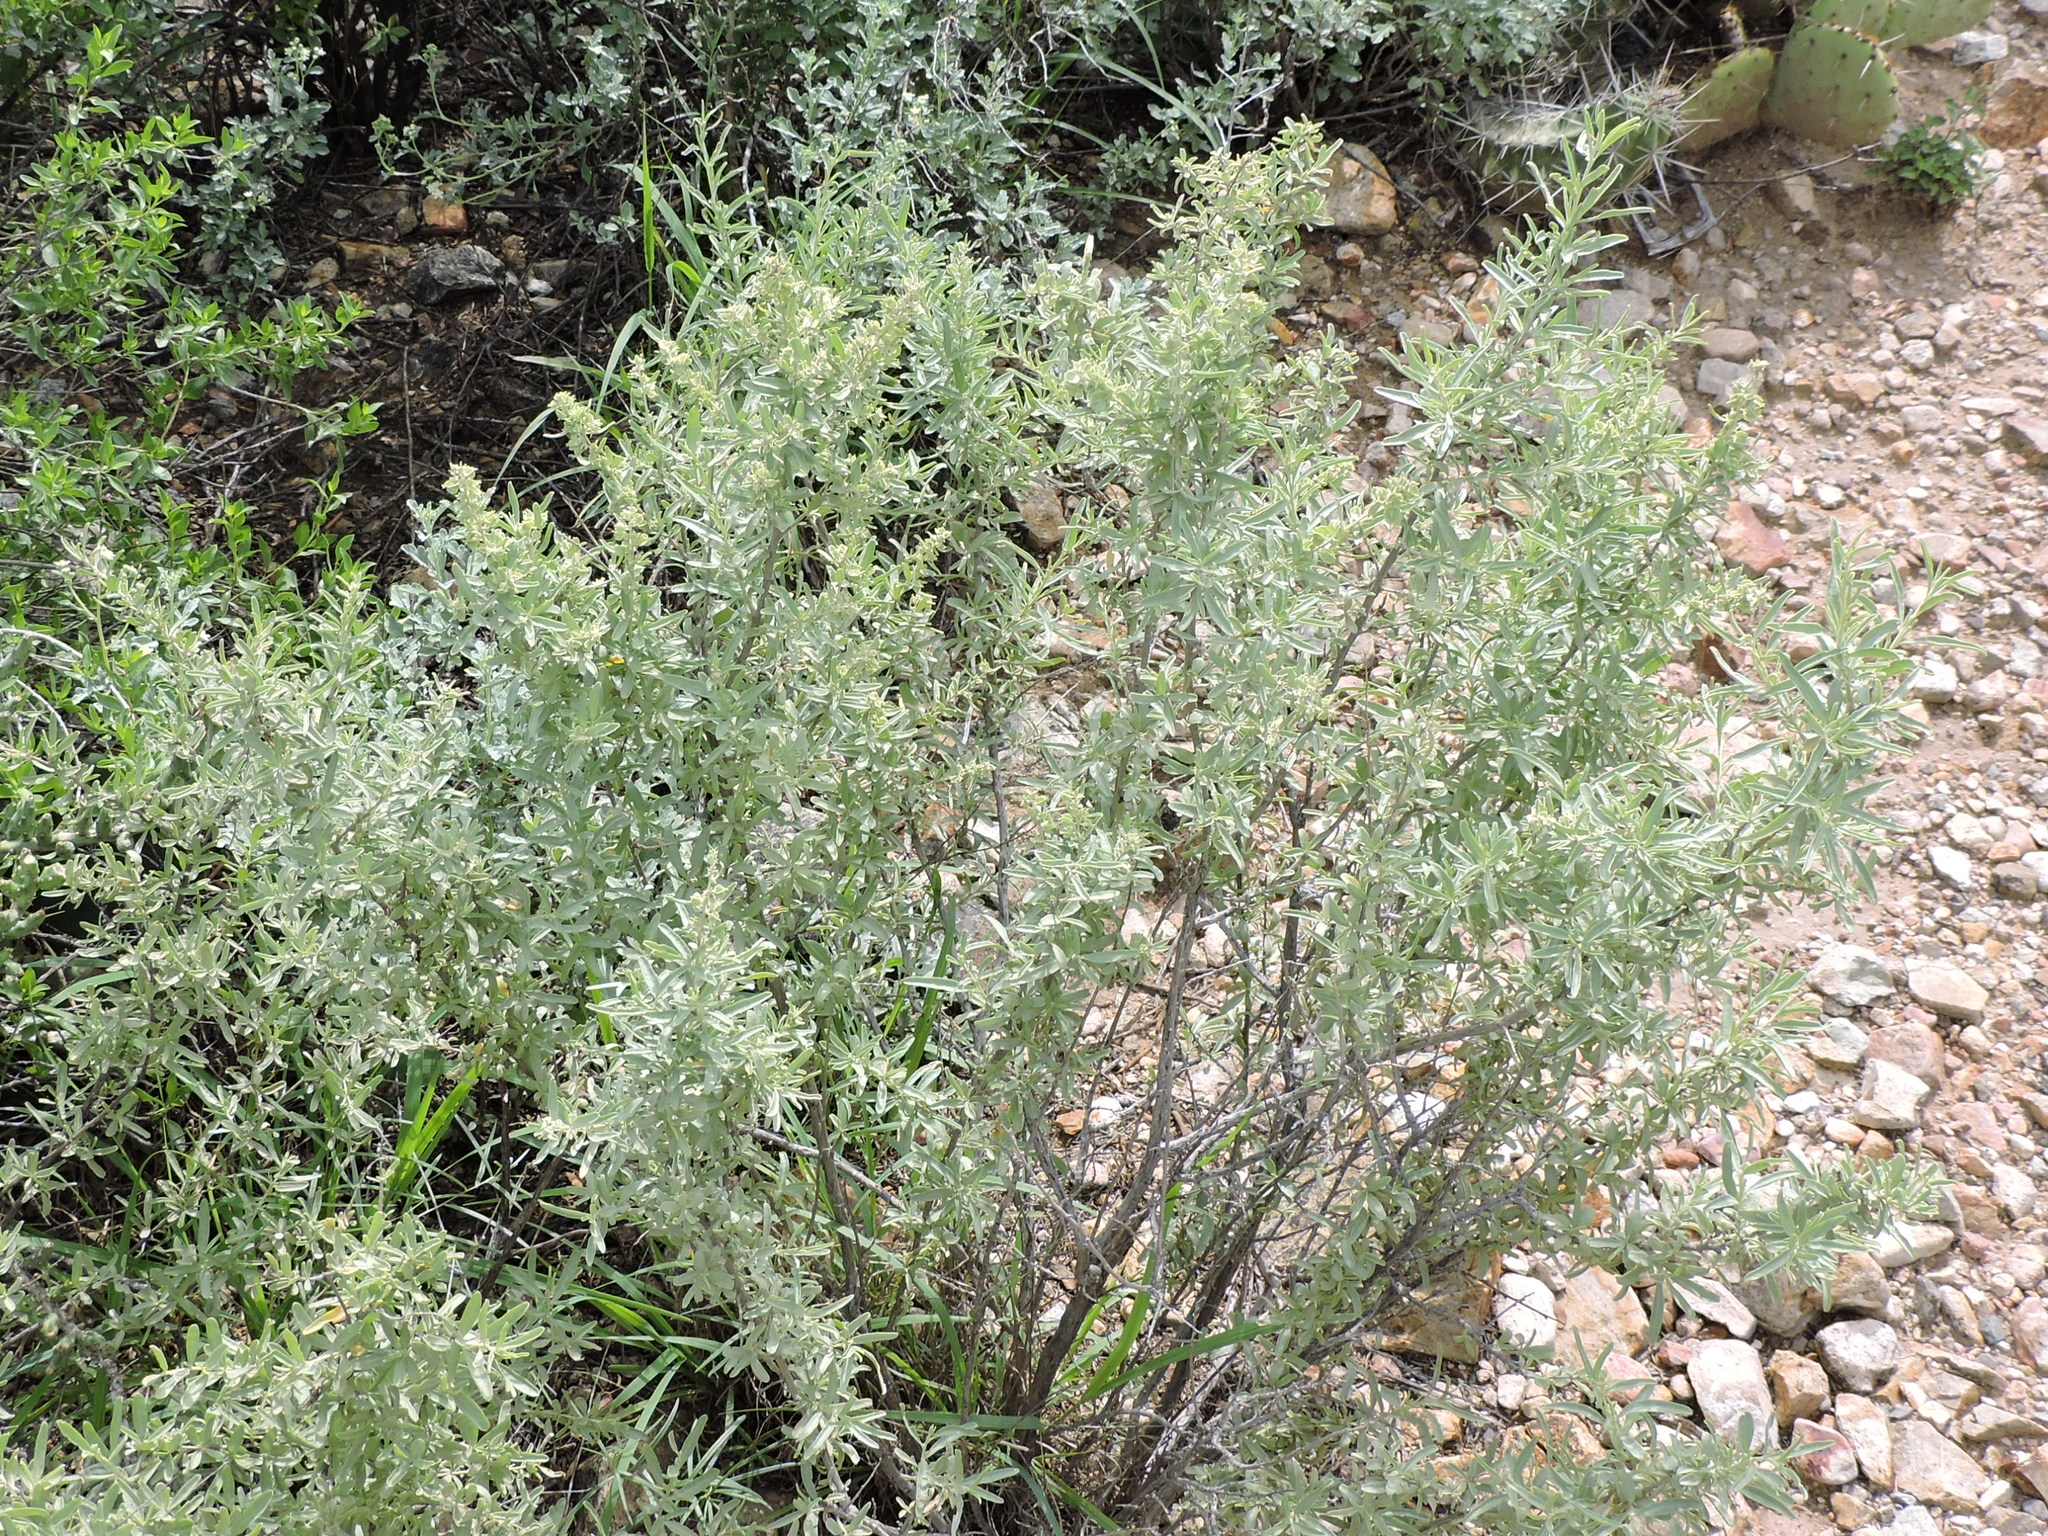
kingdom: Plantae
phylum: Tracheophyta
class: Magnoliopsida
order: Caryophyllales
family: Amaranthaceae
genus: Atriplex
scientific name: Atriplex canescens
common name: Four-wing saltbush
